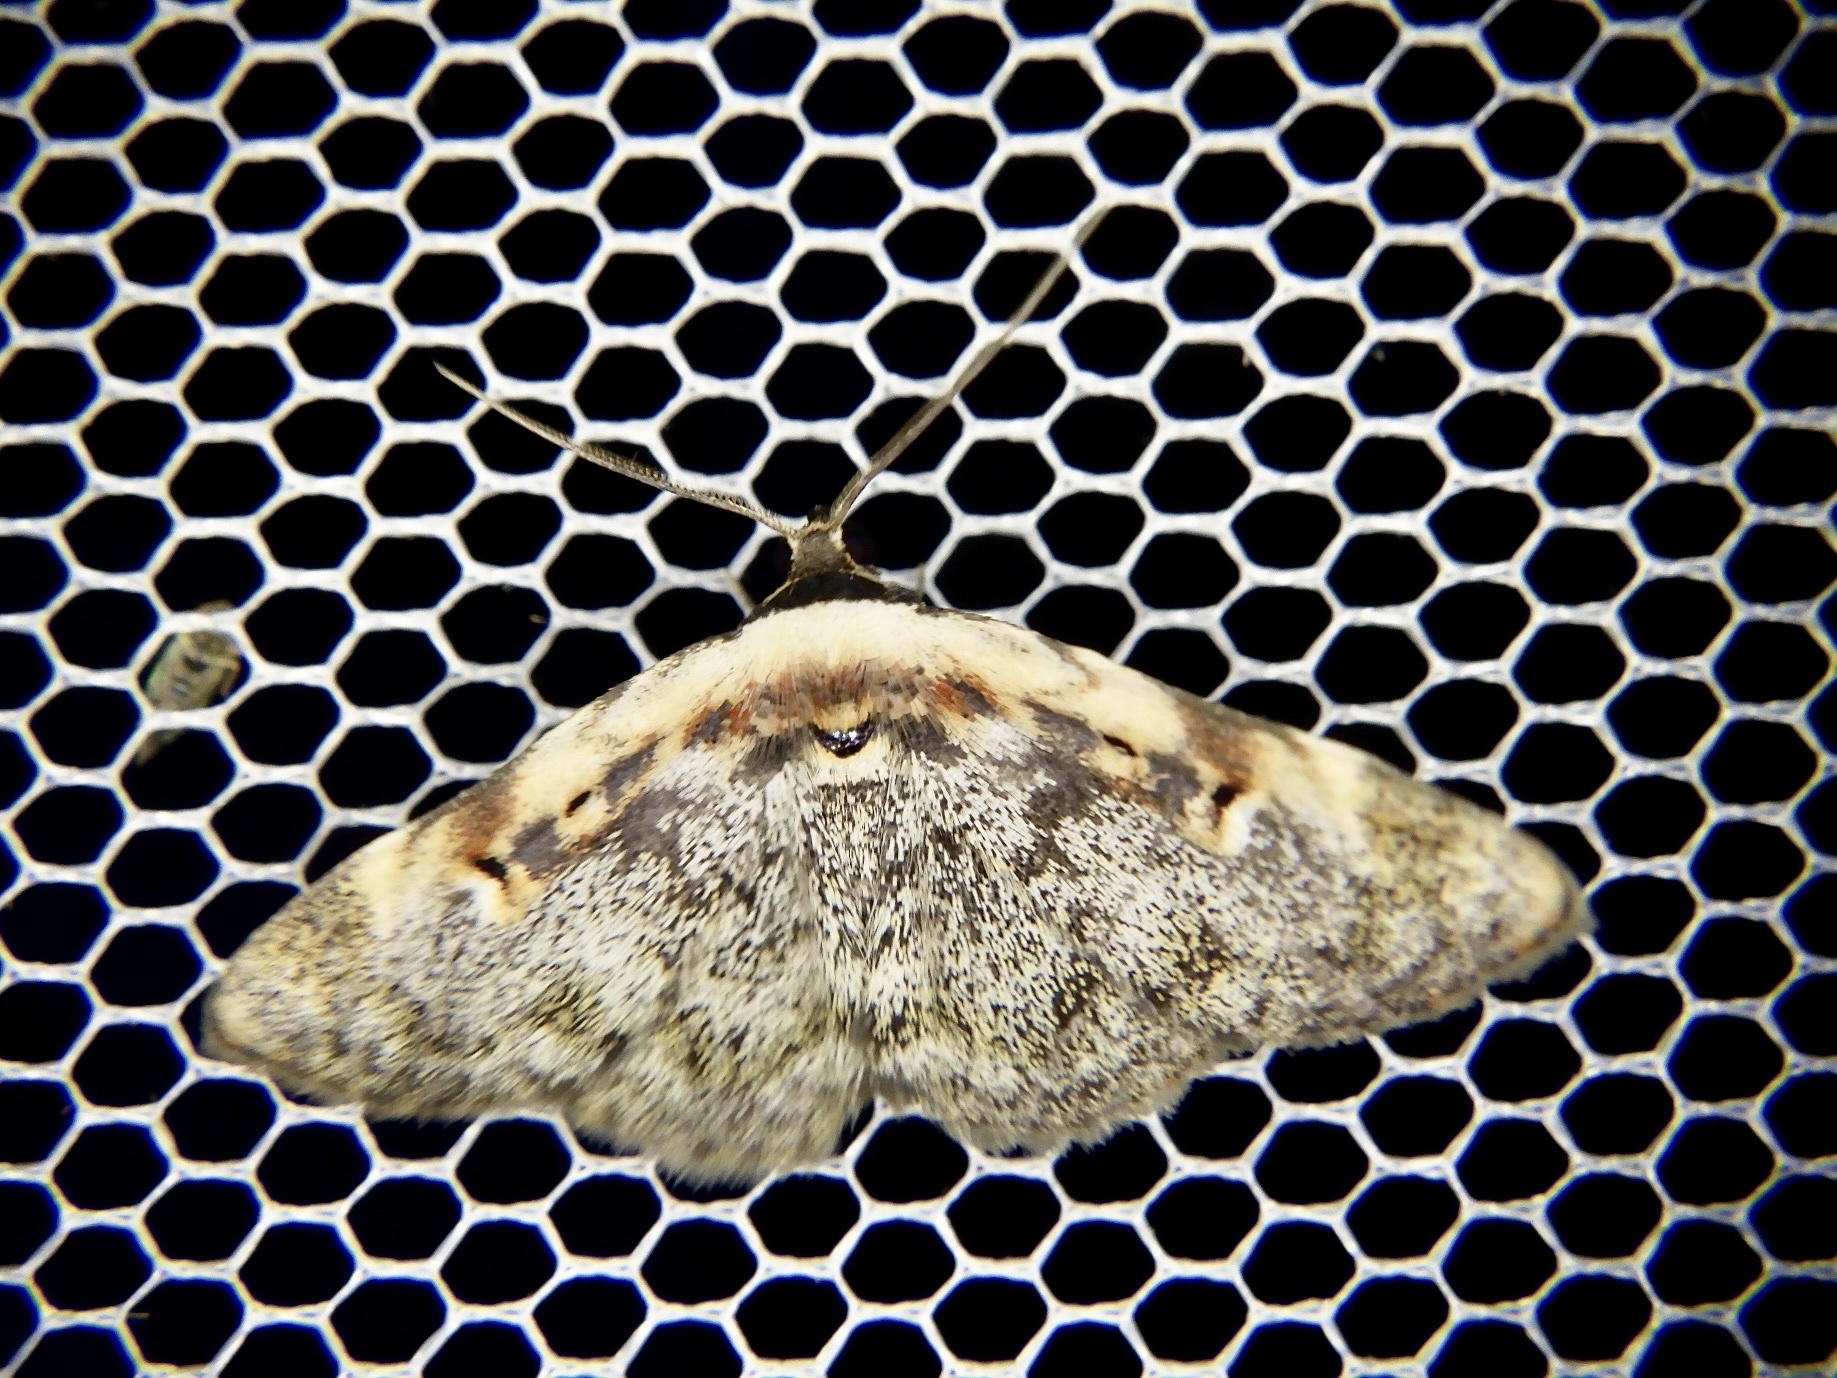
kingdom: Animalia
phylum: Arthropoda
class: Insecta
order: Lepidoptera
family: Erebidae
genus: Hypostrotia
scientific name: Hypostrotia cinerea
